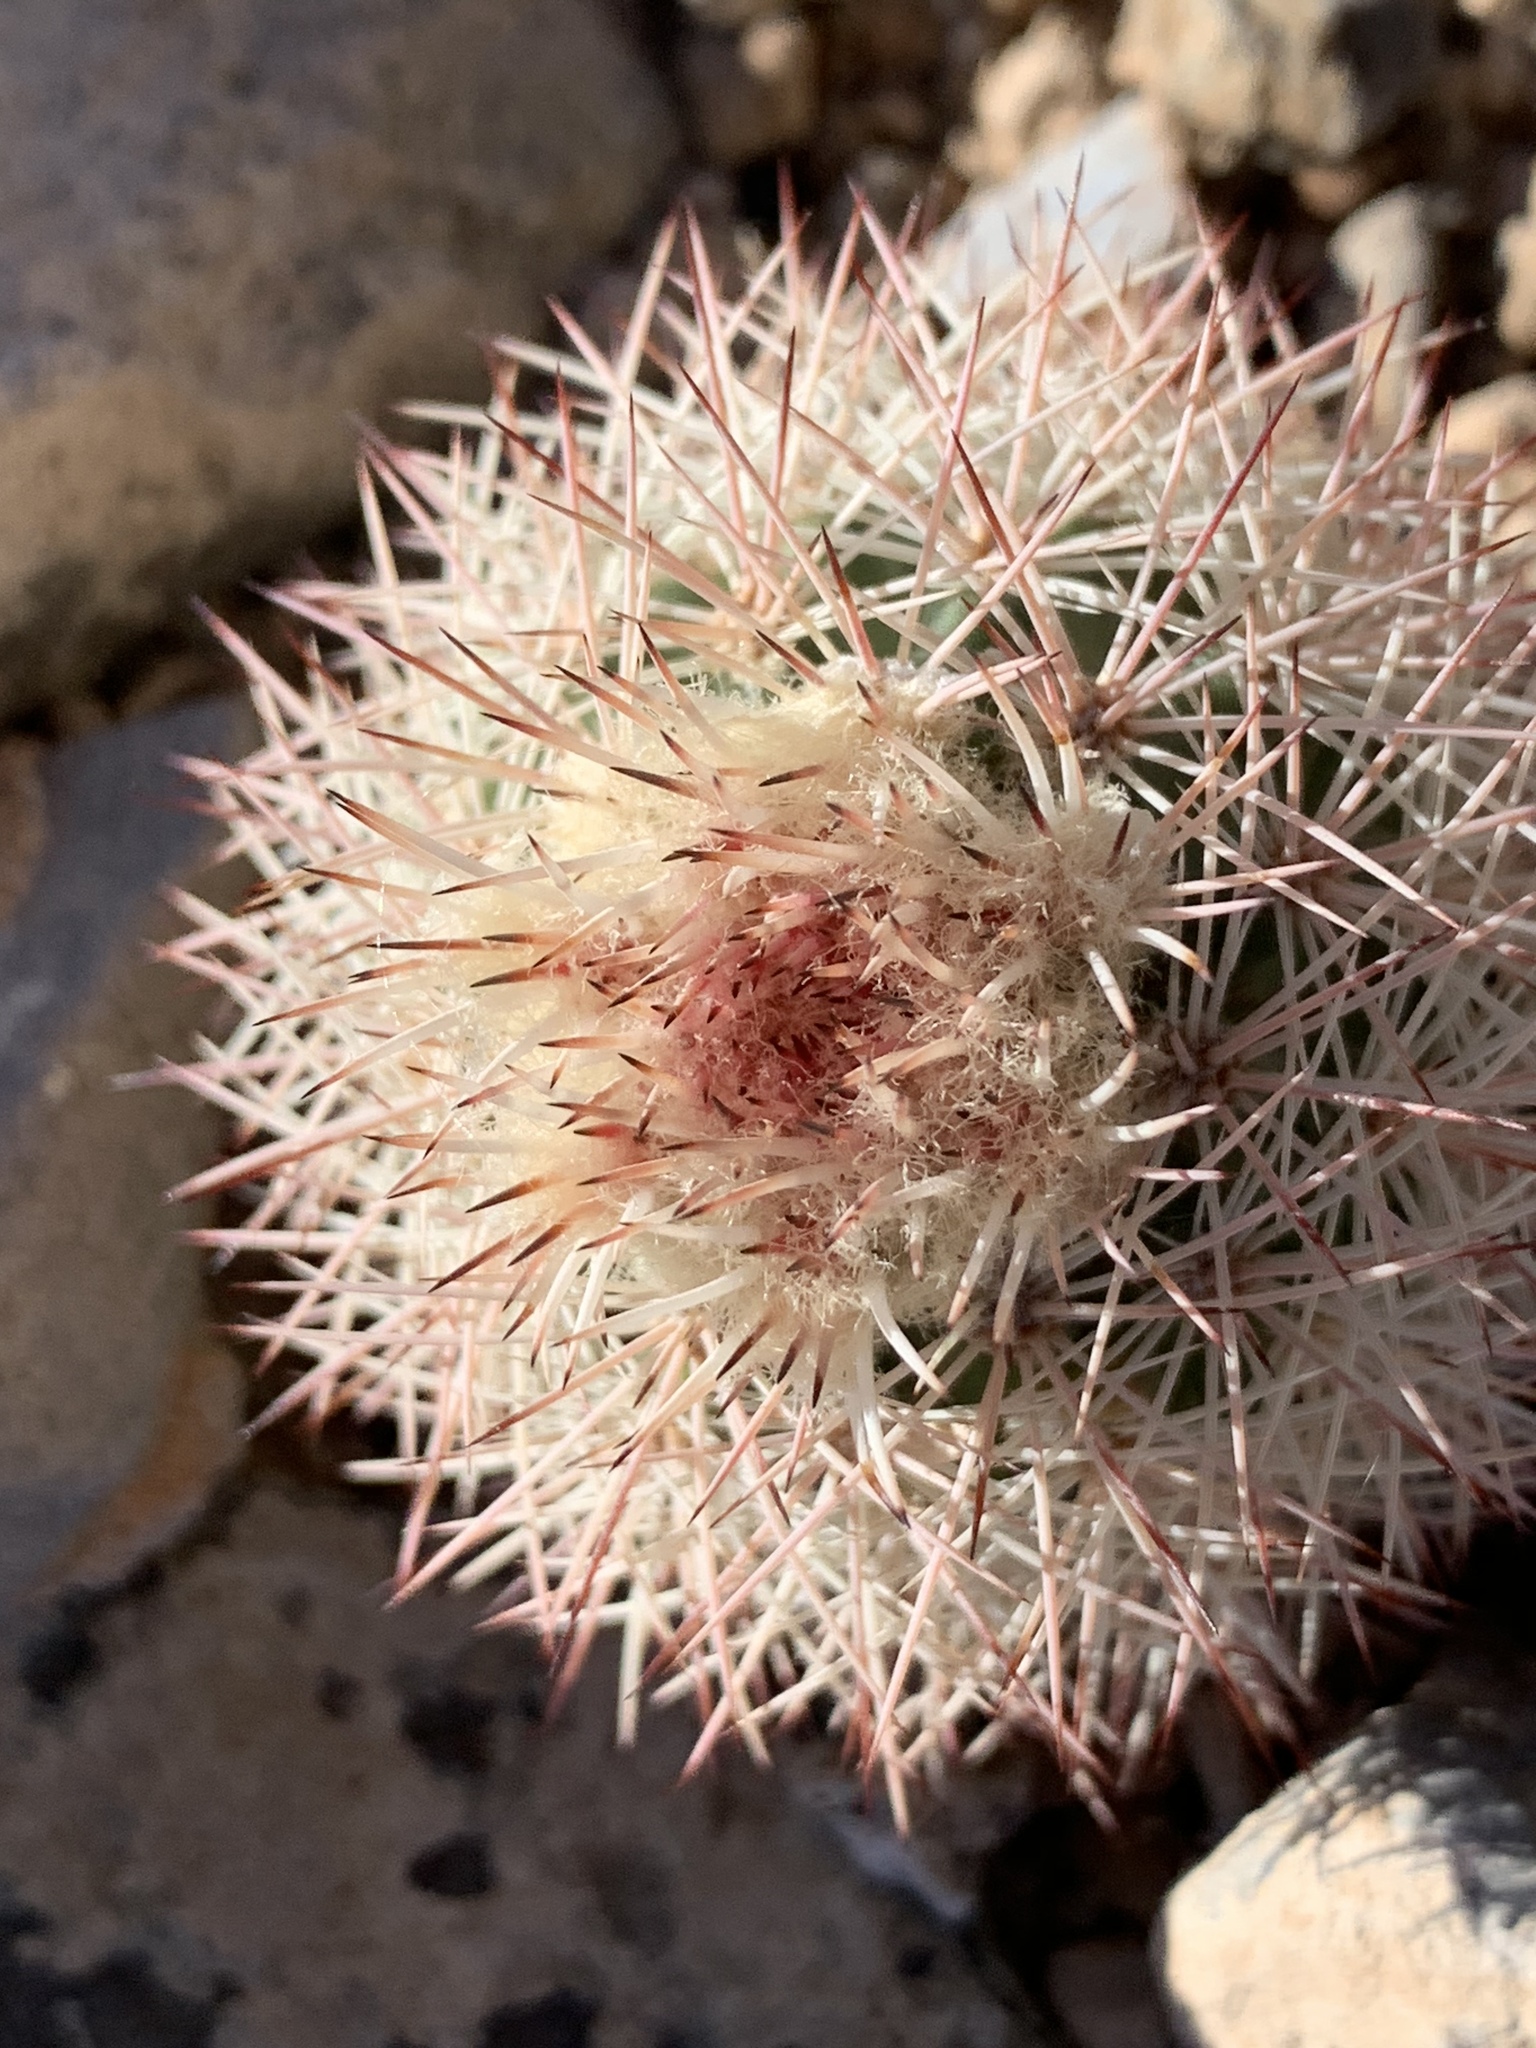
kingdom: Plantae
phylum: Tracheophyta
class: Magnoliopsida
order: Caryophyllales
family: Cactaceae
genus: Echinocereus
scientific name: Echinocereus dasyacanthus
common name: Spiny hedgehog cactus
